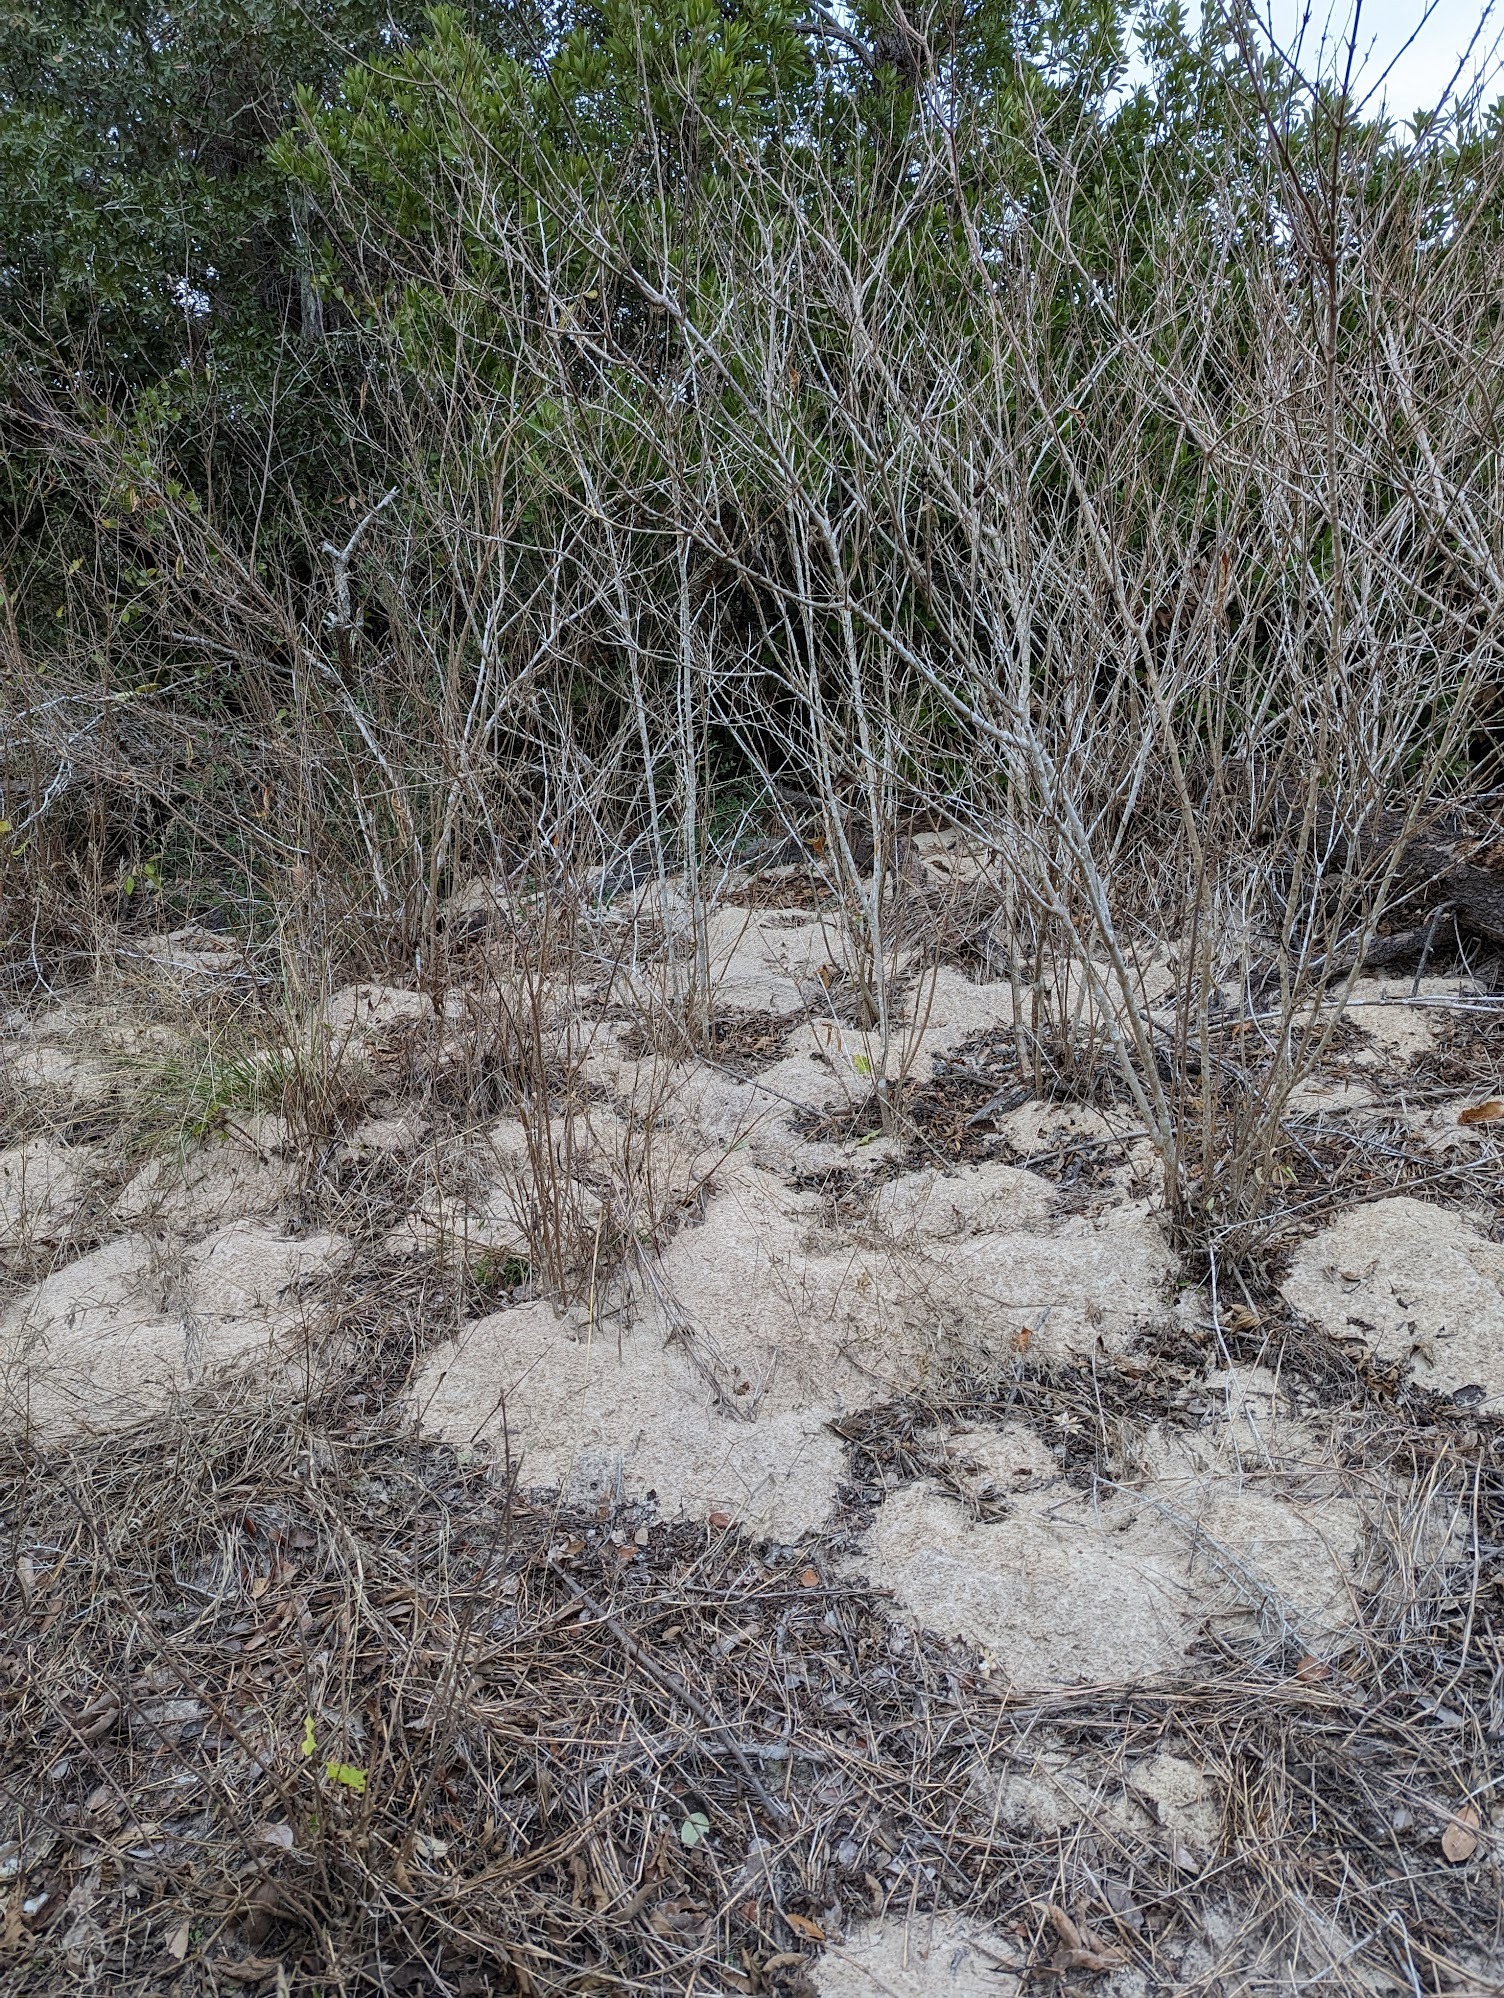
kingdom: Animalia
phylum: Arthropoda
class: Insecta
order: Hymenoptera
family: Formicidae
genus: Atta
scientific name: Atta texana
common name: Texas leafcutting ant
